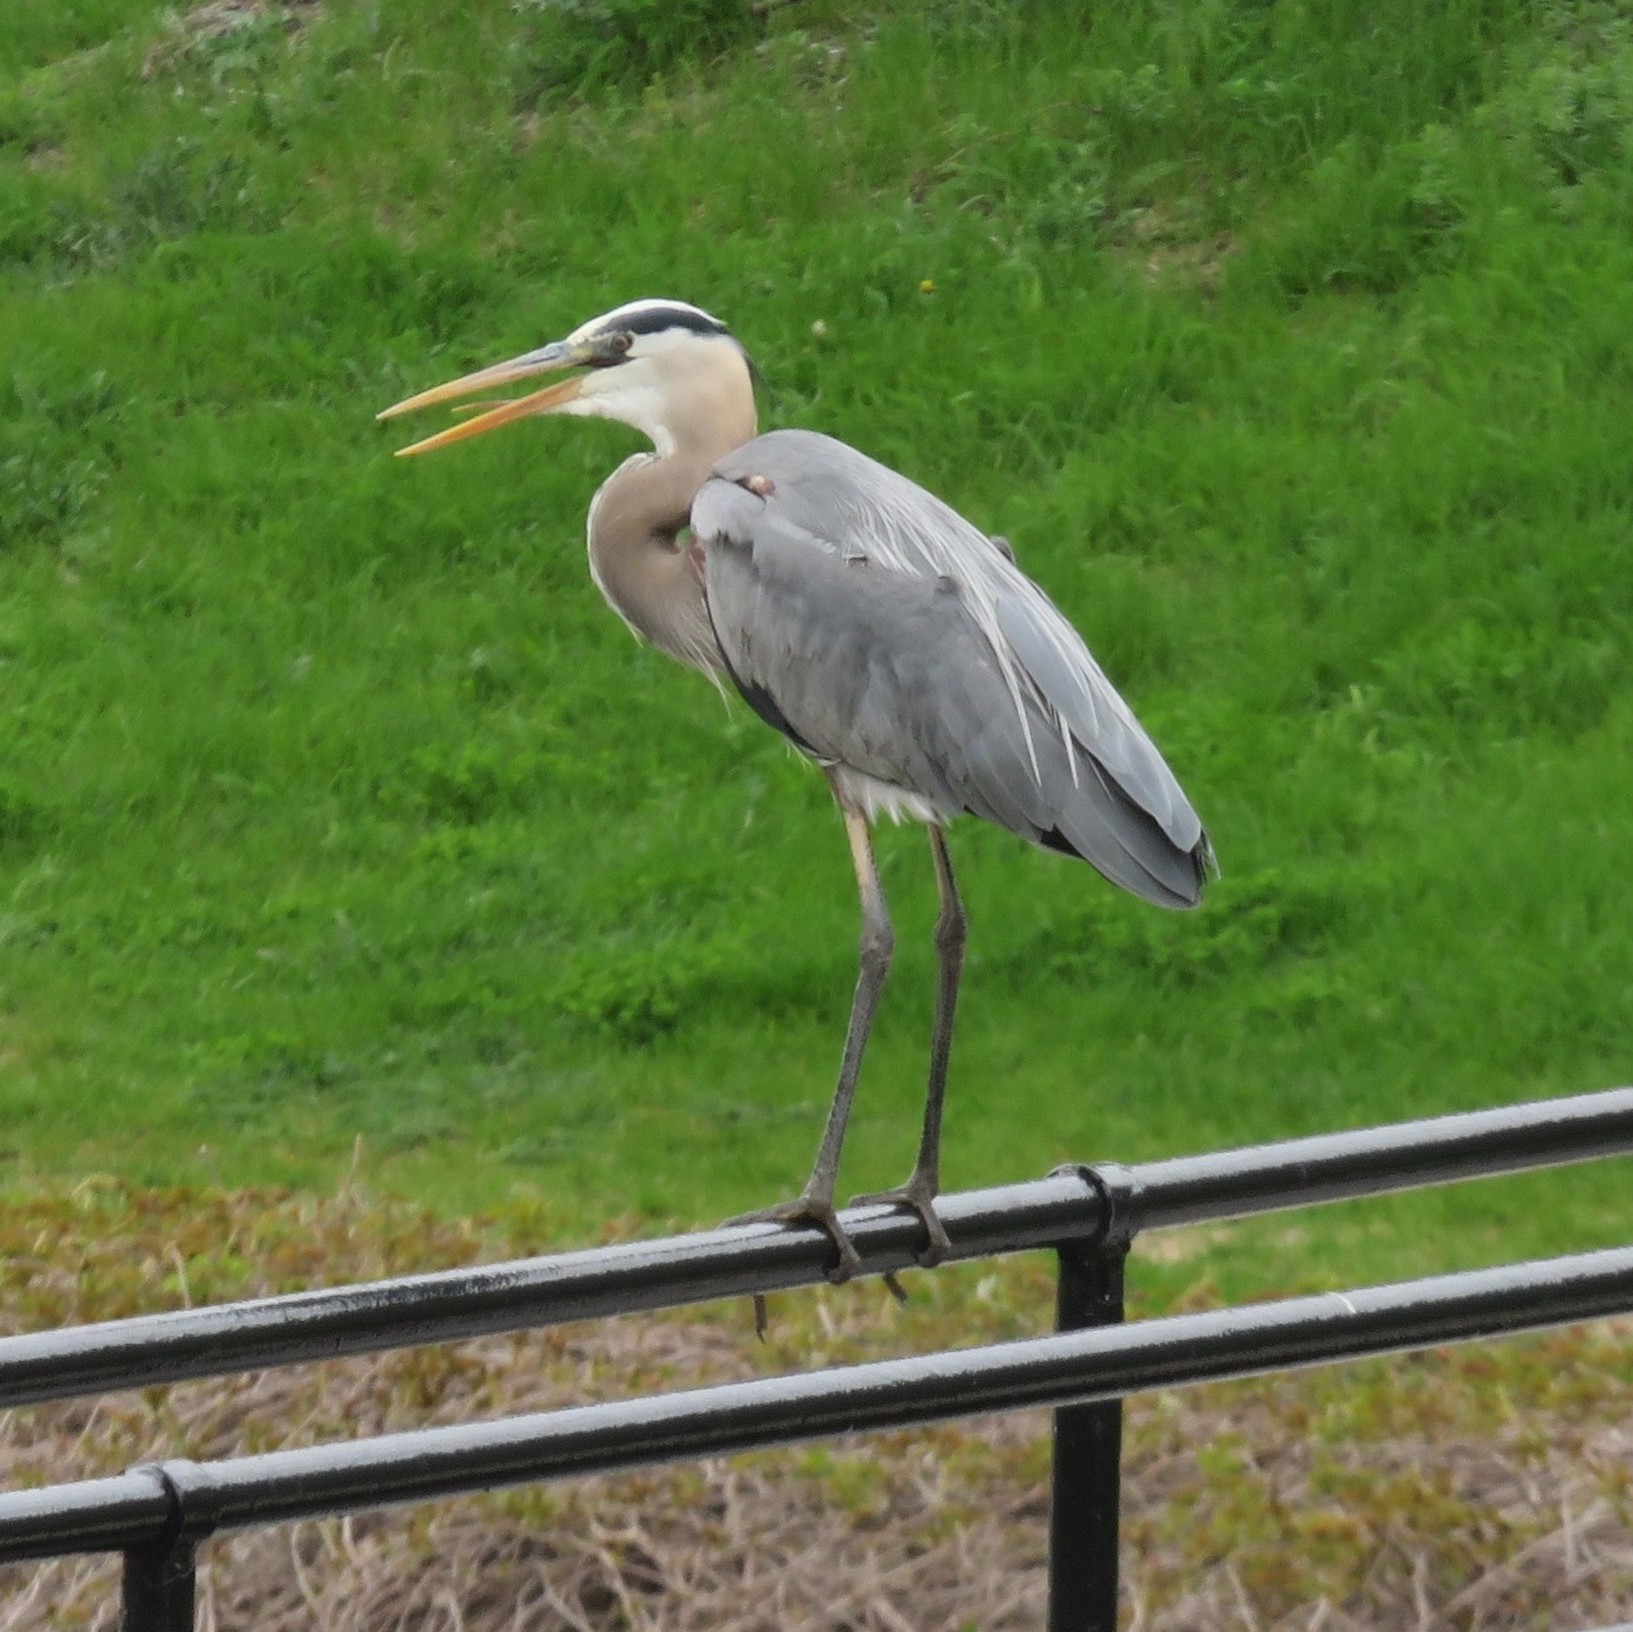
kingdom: Animalia
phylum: Chordata
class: Aves
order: Pelecaniformes
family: Ardeidae
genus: Ardea
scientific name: Ardea herodias
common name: Great blue heron
